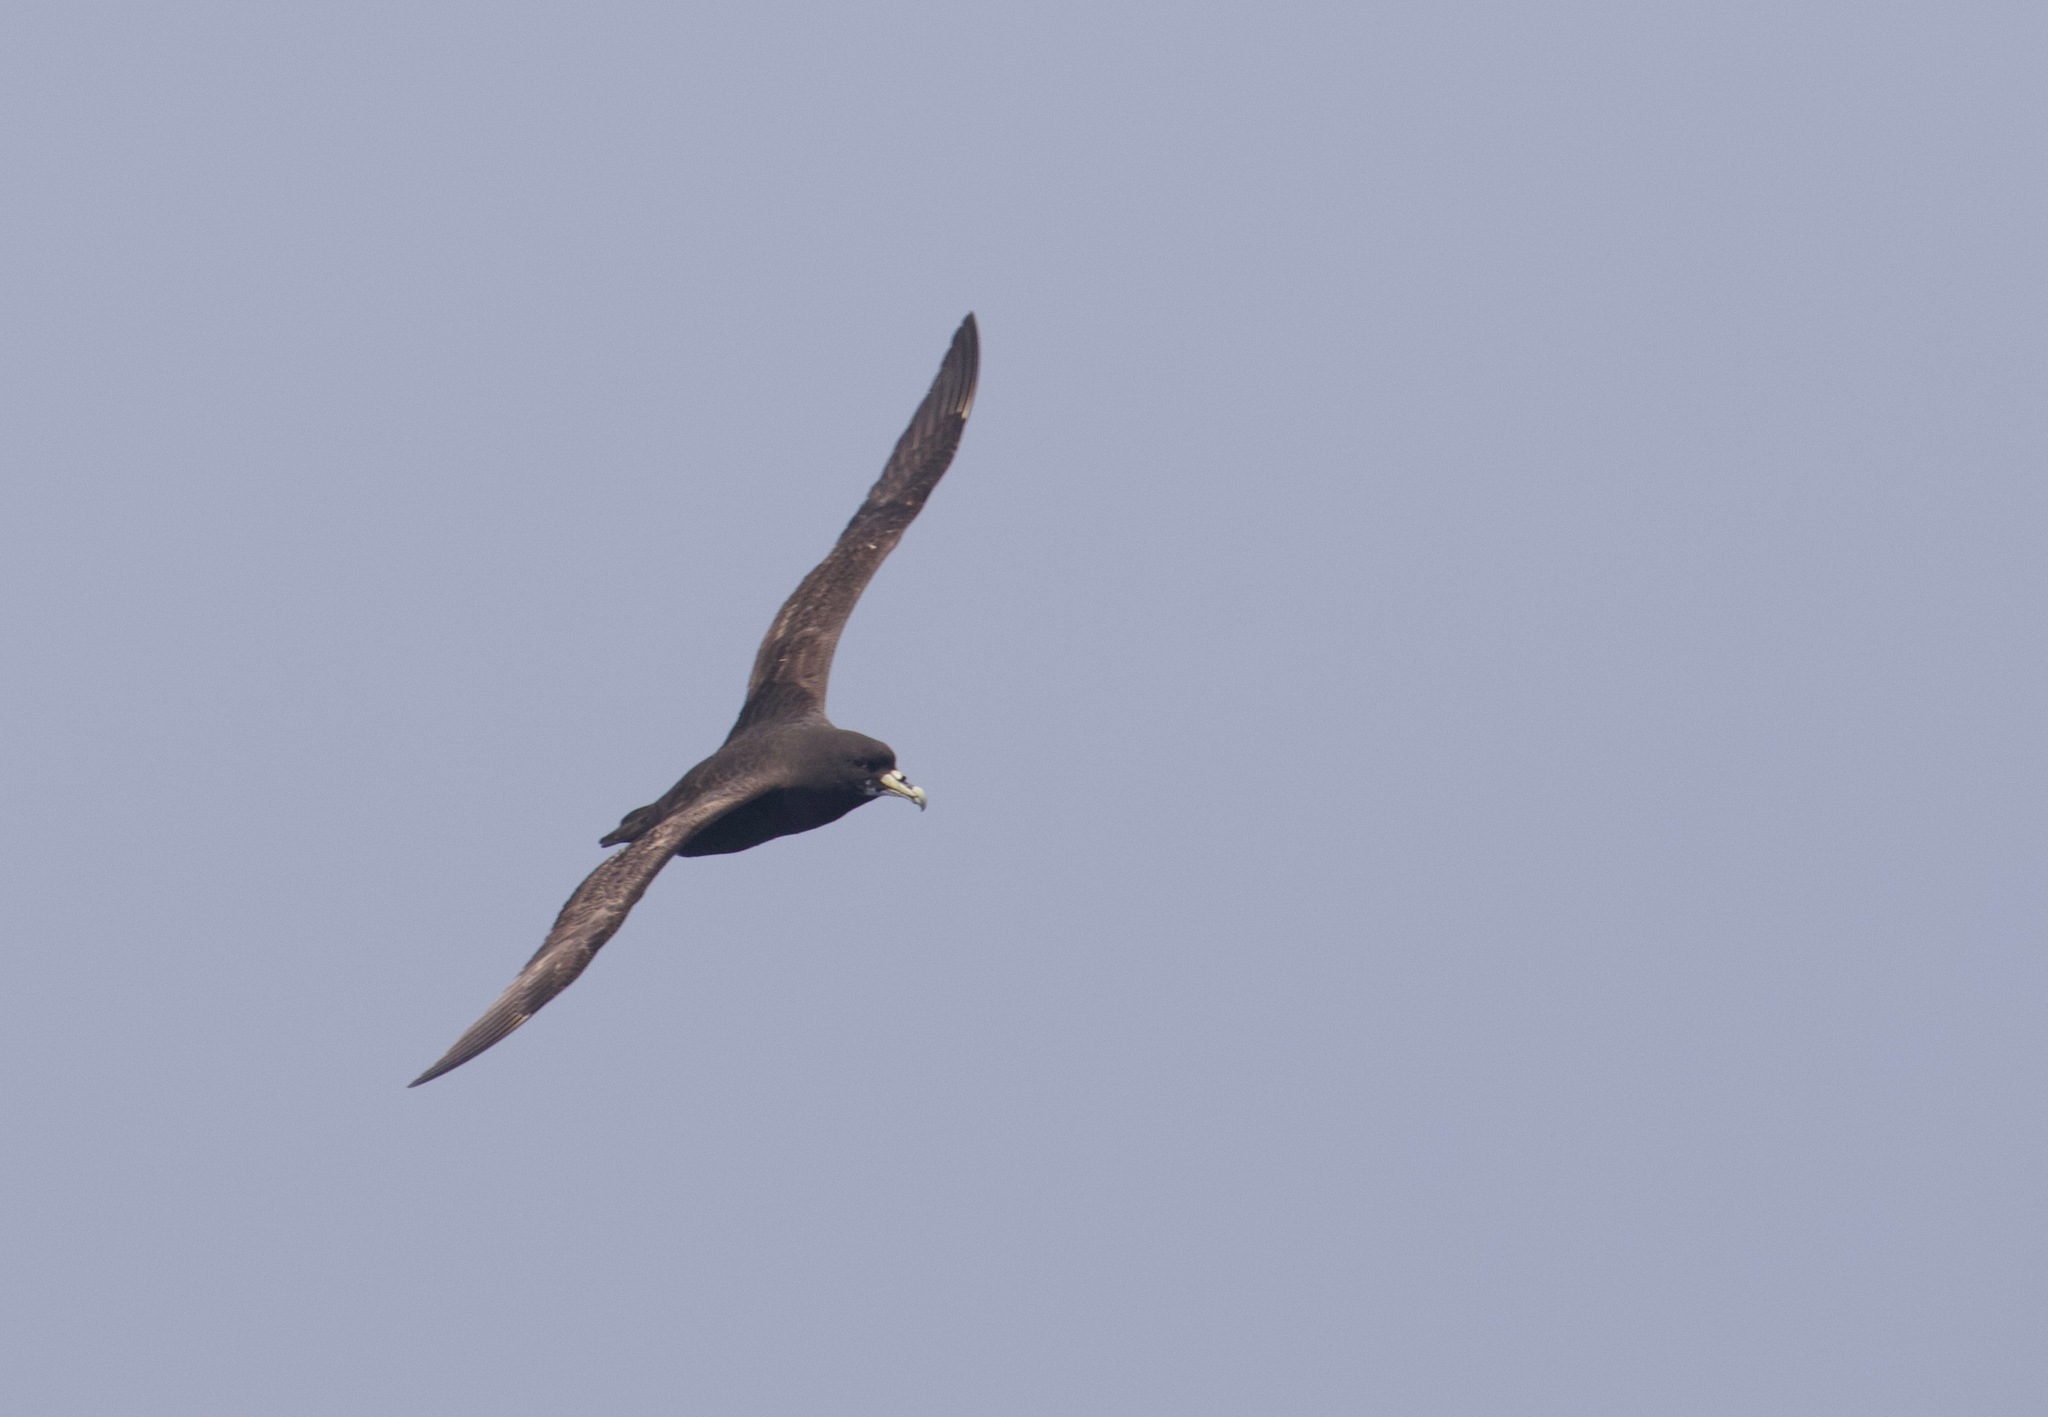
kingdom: Animalia
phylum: Chordata
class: Aves
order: Procellariiformes
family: Procellariidae
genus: Procellaria
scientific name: Procellaria aequinoctialis
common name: White-chinned petrel
